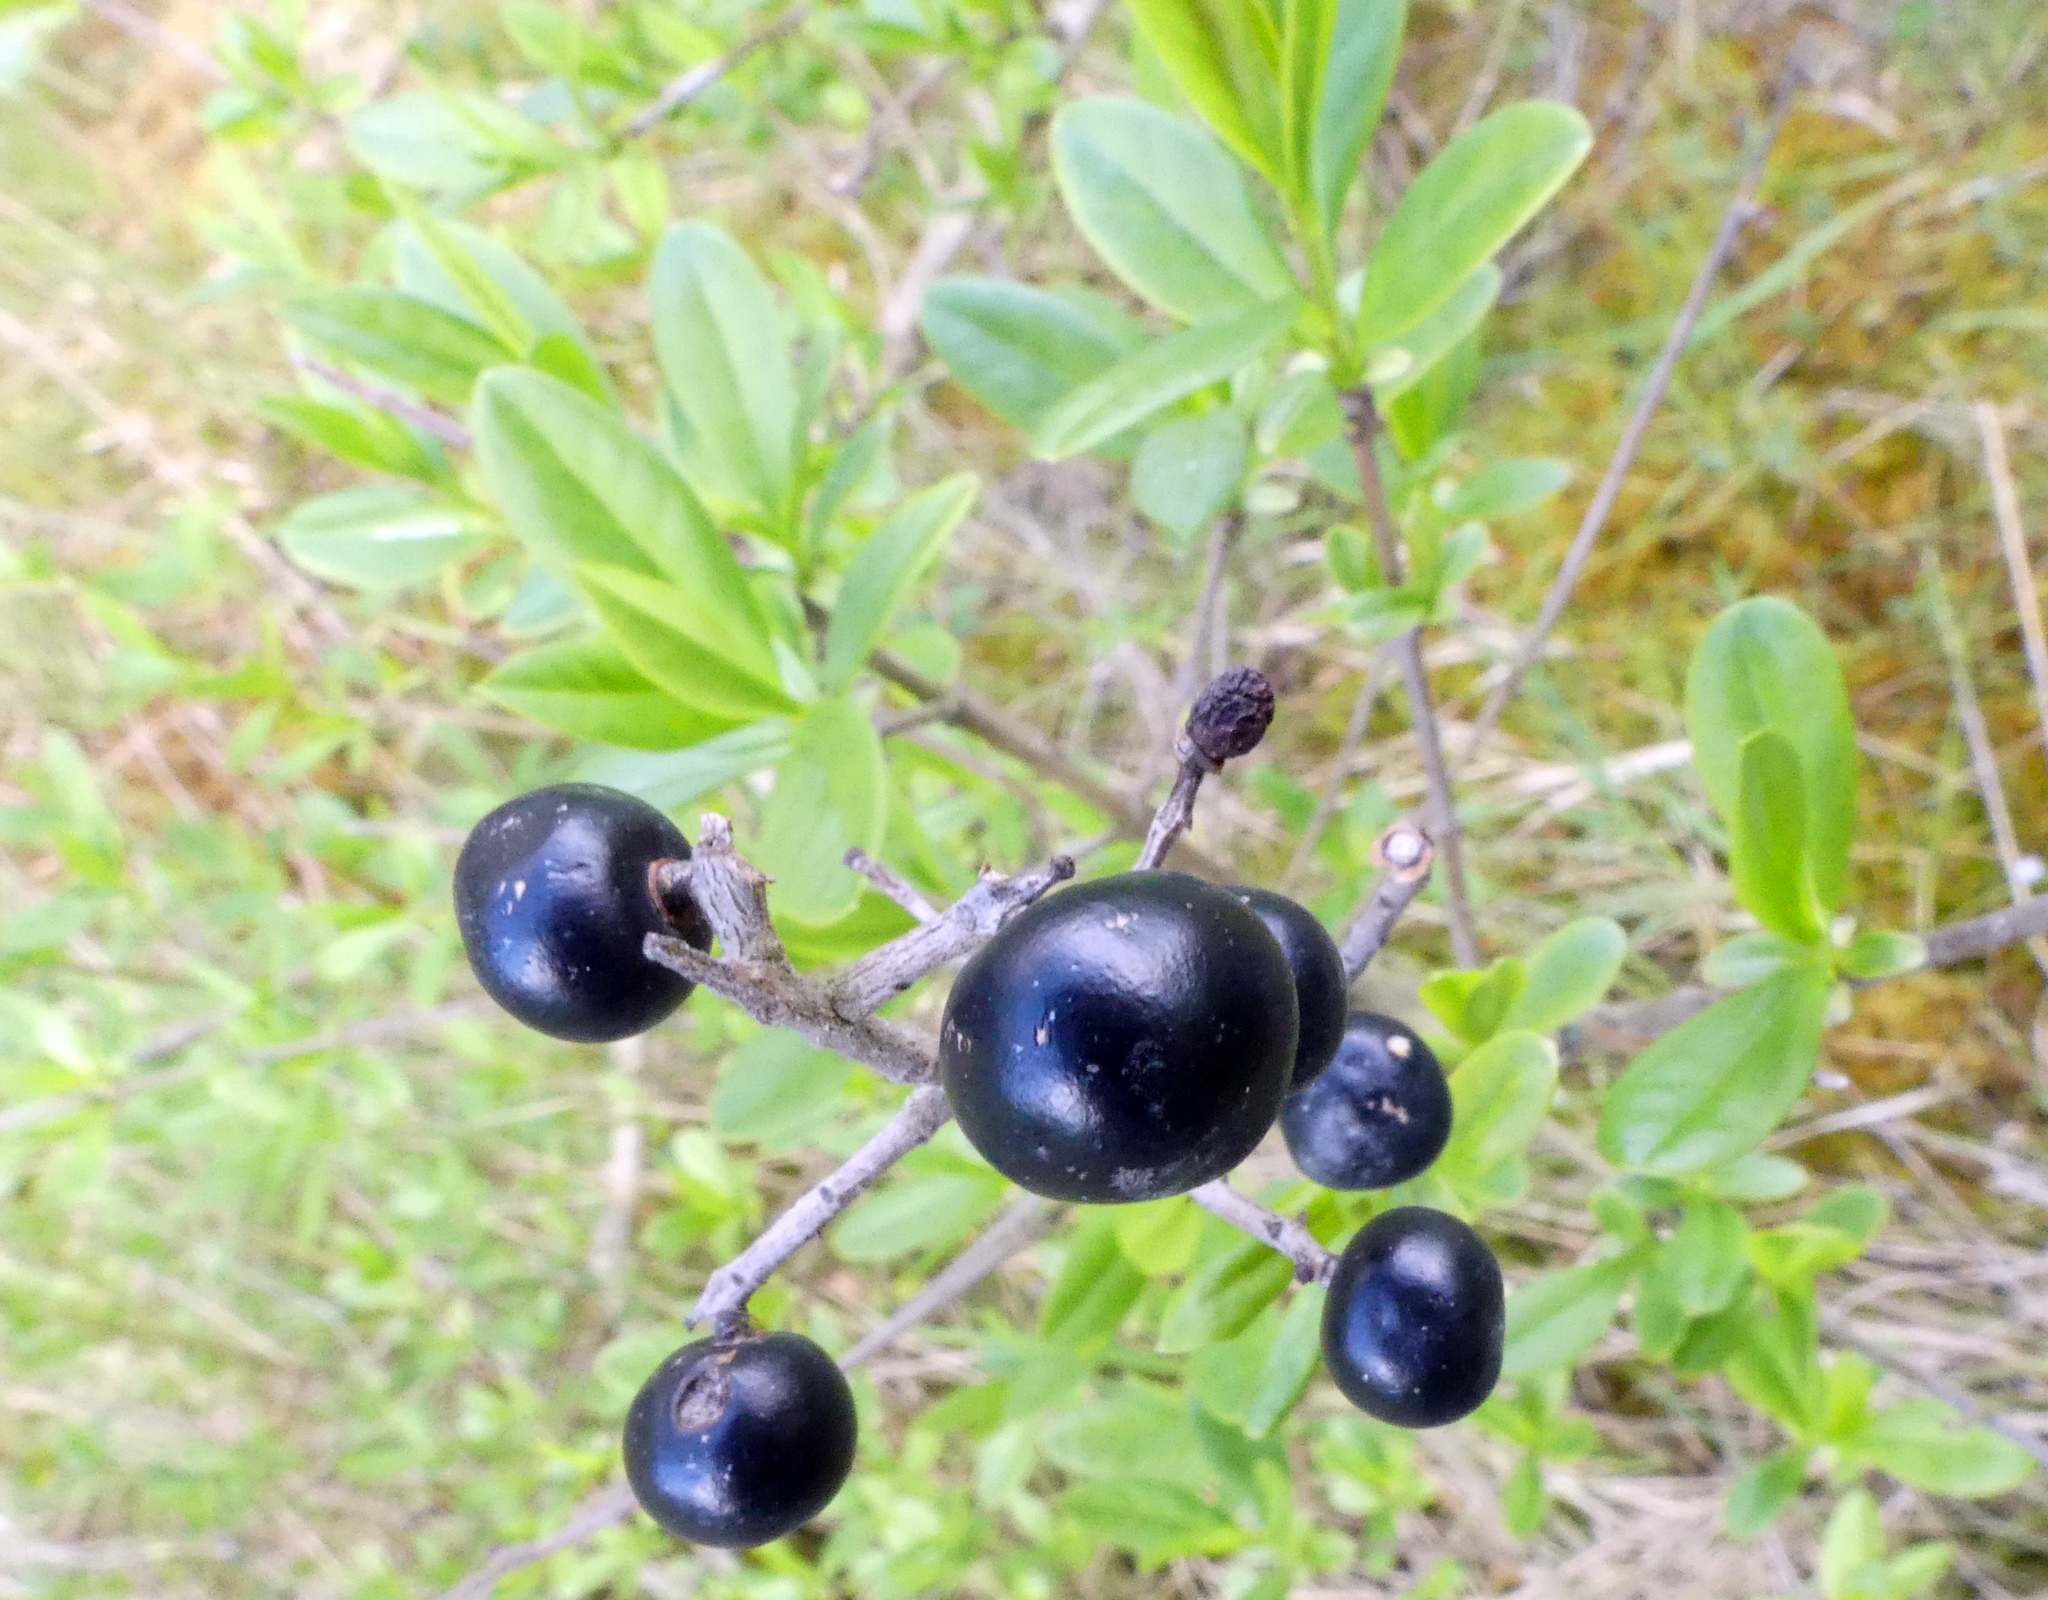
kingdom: Plantae
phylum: Tracheophyta
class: Magnoliopsida
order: Lamiales
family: Oleaceae
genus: Ligustrum
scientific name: Ligustrum vulgare
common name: Wild privet
